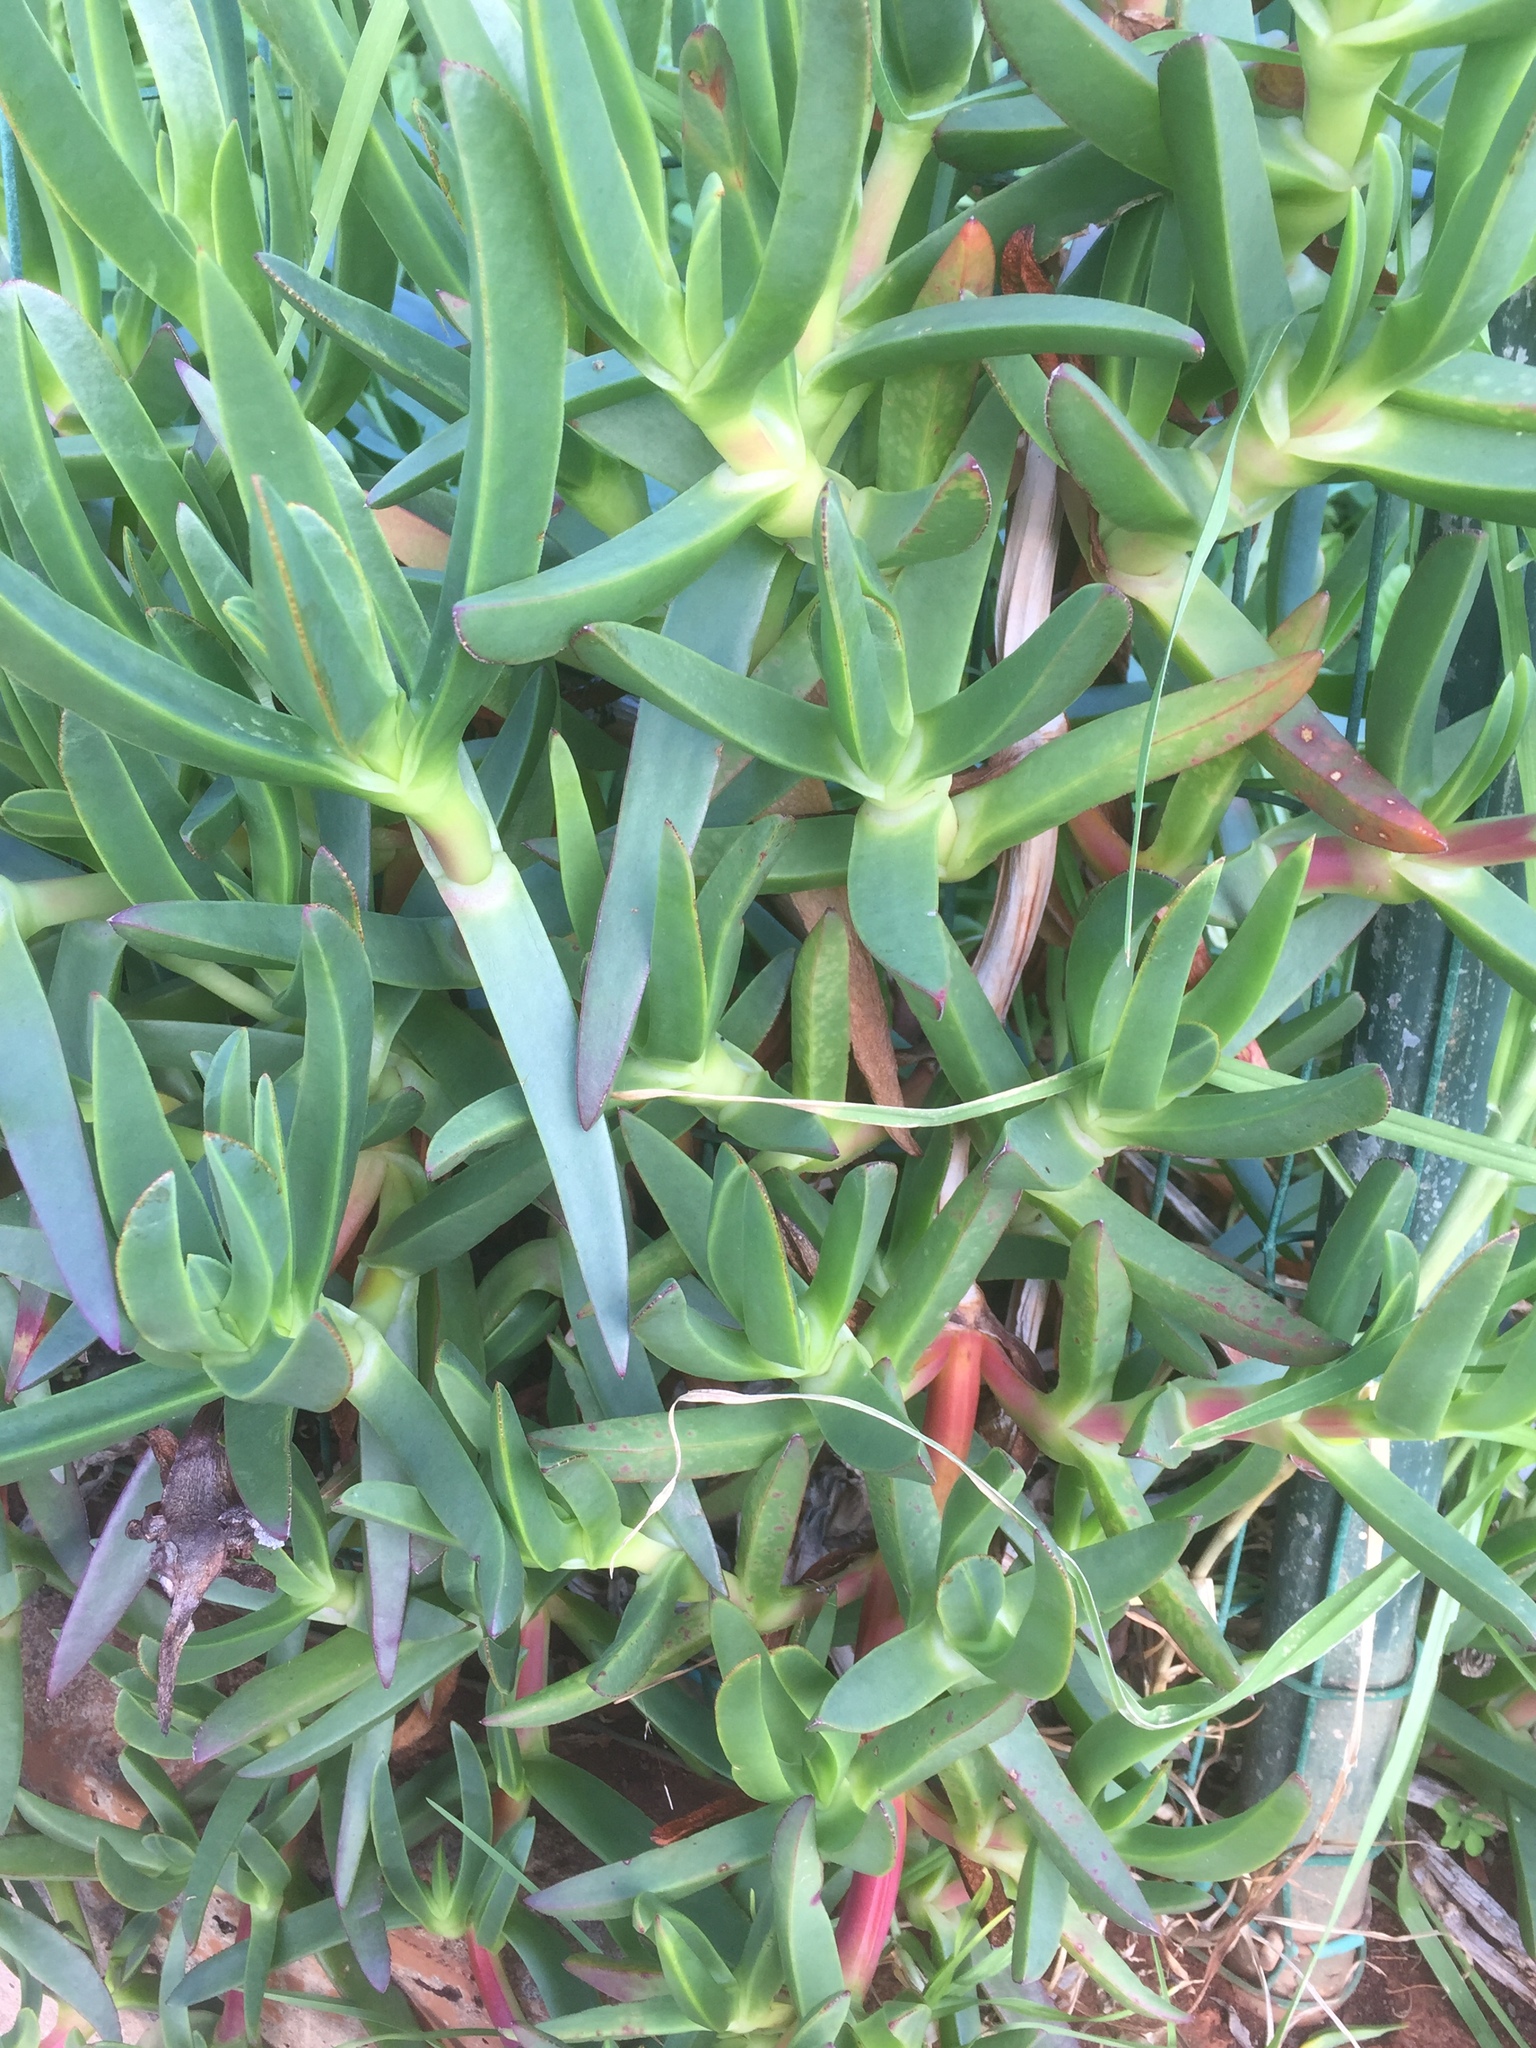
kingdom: Plantae
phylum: Tracheophyta
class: Magnoliopsida
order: Caryophyllales
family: Aizoaceae
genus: Carpobrotus
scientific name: Carpobrotus edulis
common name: Hottentot-fig
